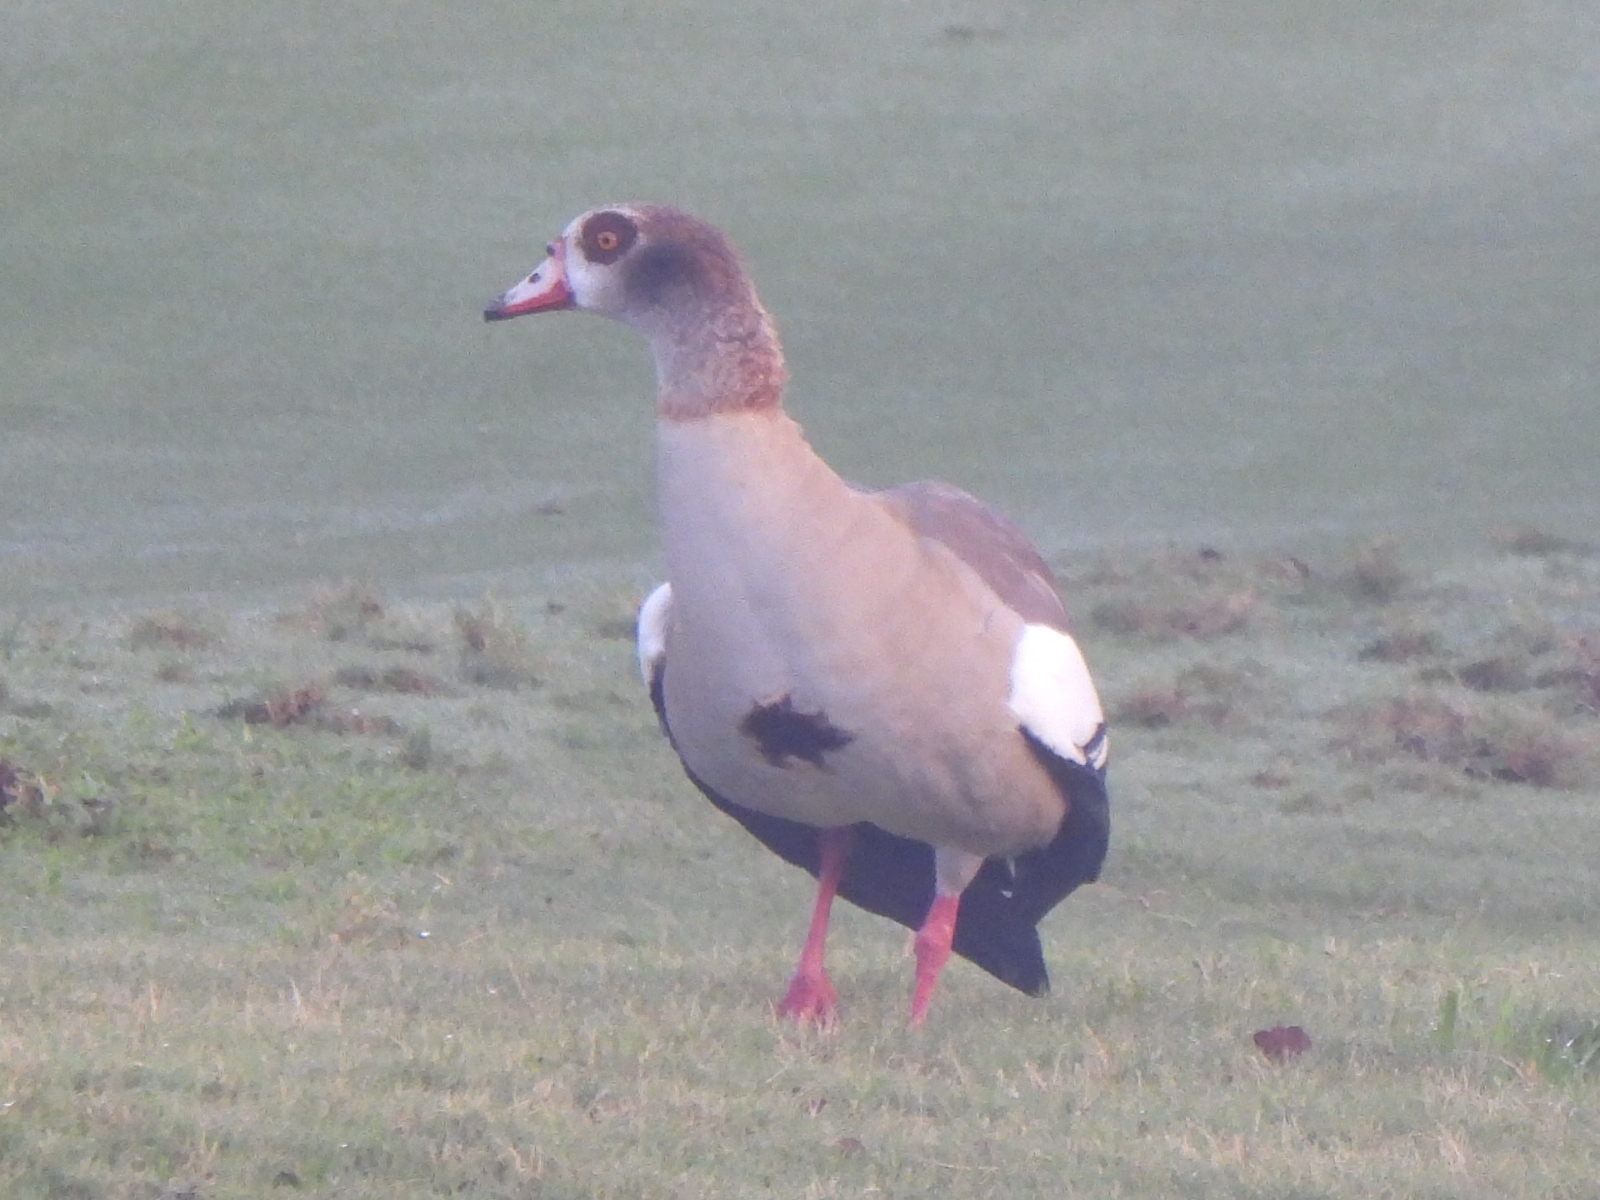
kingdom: Animalia
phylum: Chordata
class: Aves
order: Anseriformes
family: Anatidae
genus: Alopochen
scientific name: Alopochen aegyptiaca
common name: Egyptian goose
